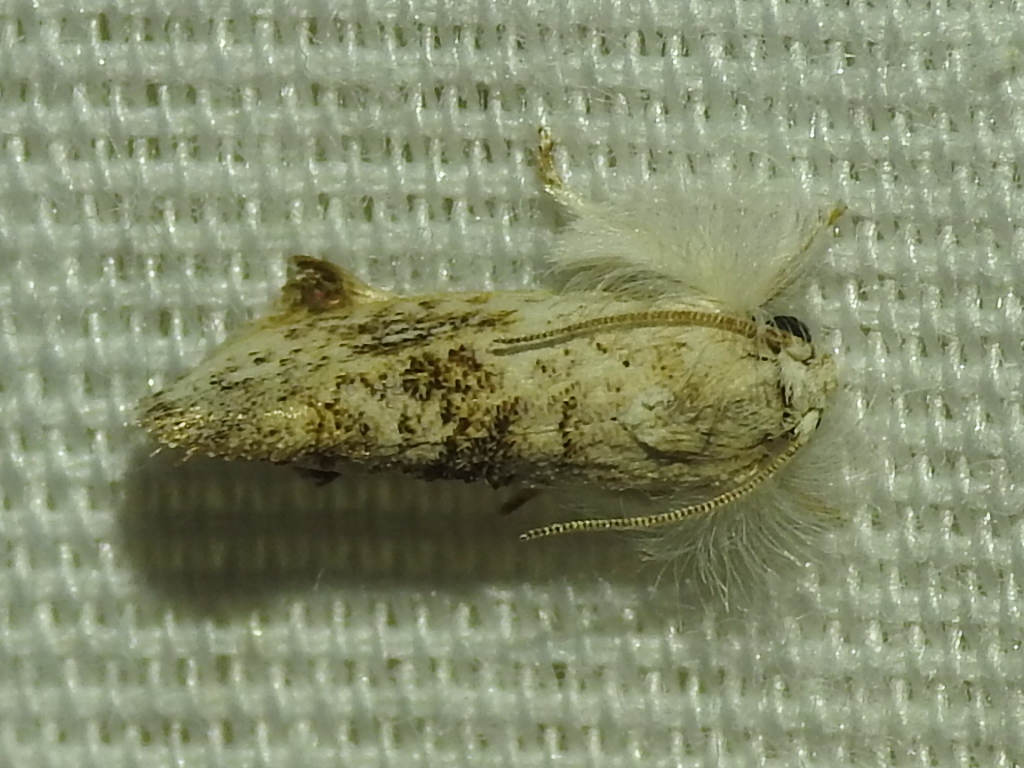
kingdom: Animalia
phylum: Arthropoda
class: Insecta
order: Lepidoptera
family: Tineidae
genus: Acrolophus
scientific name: Acrolophus mycetophagus
